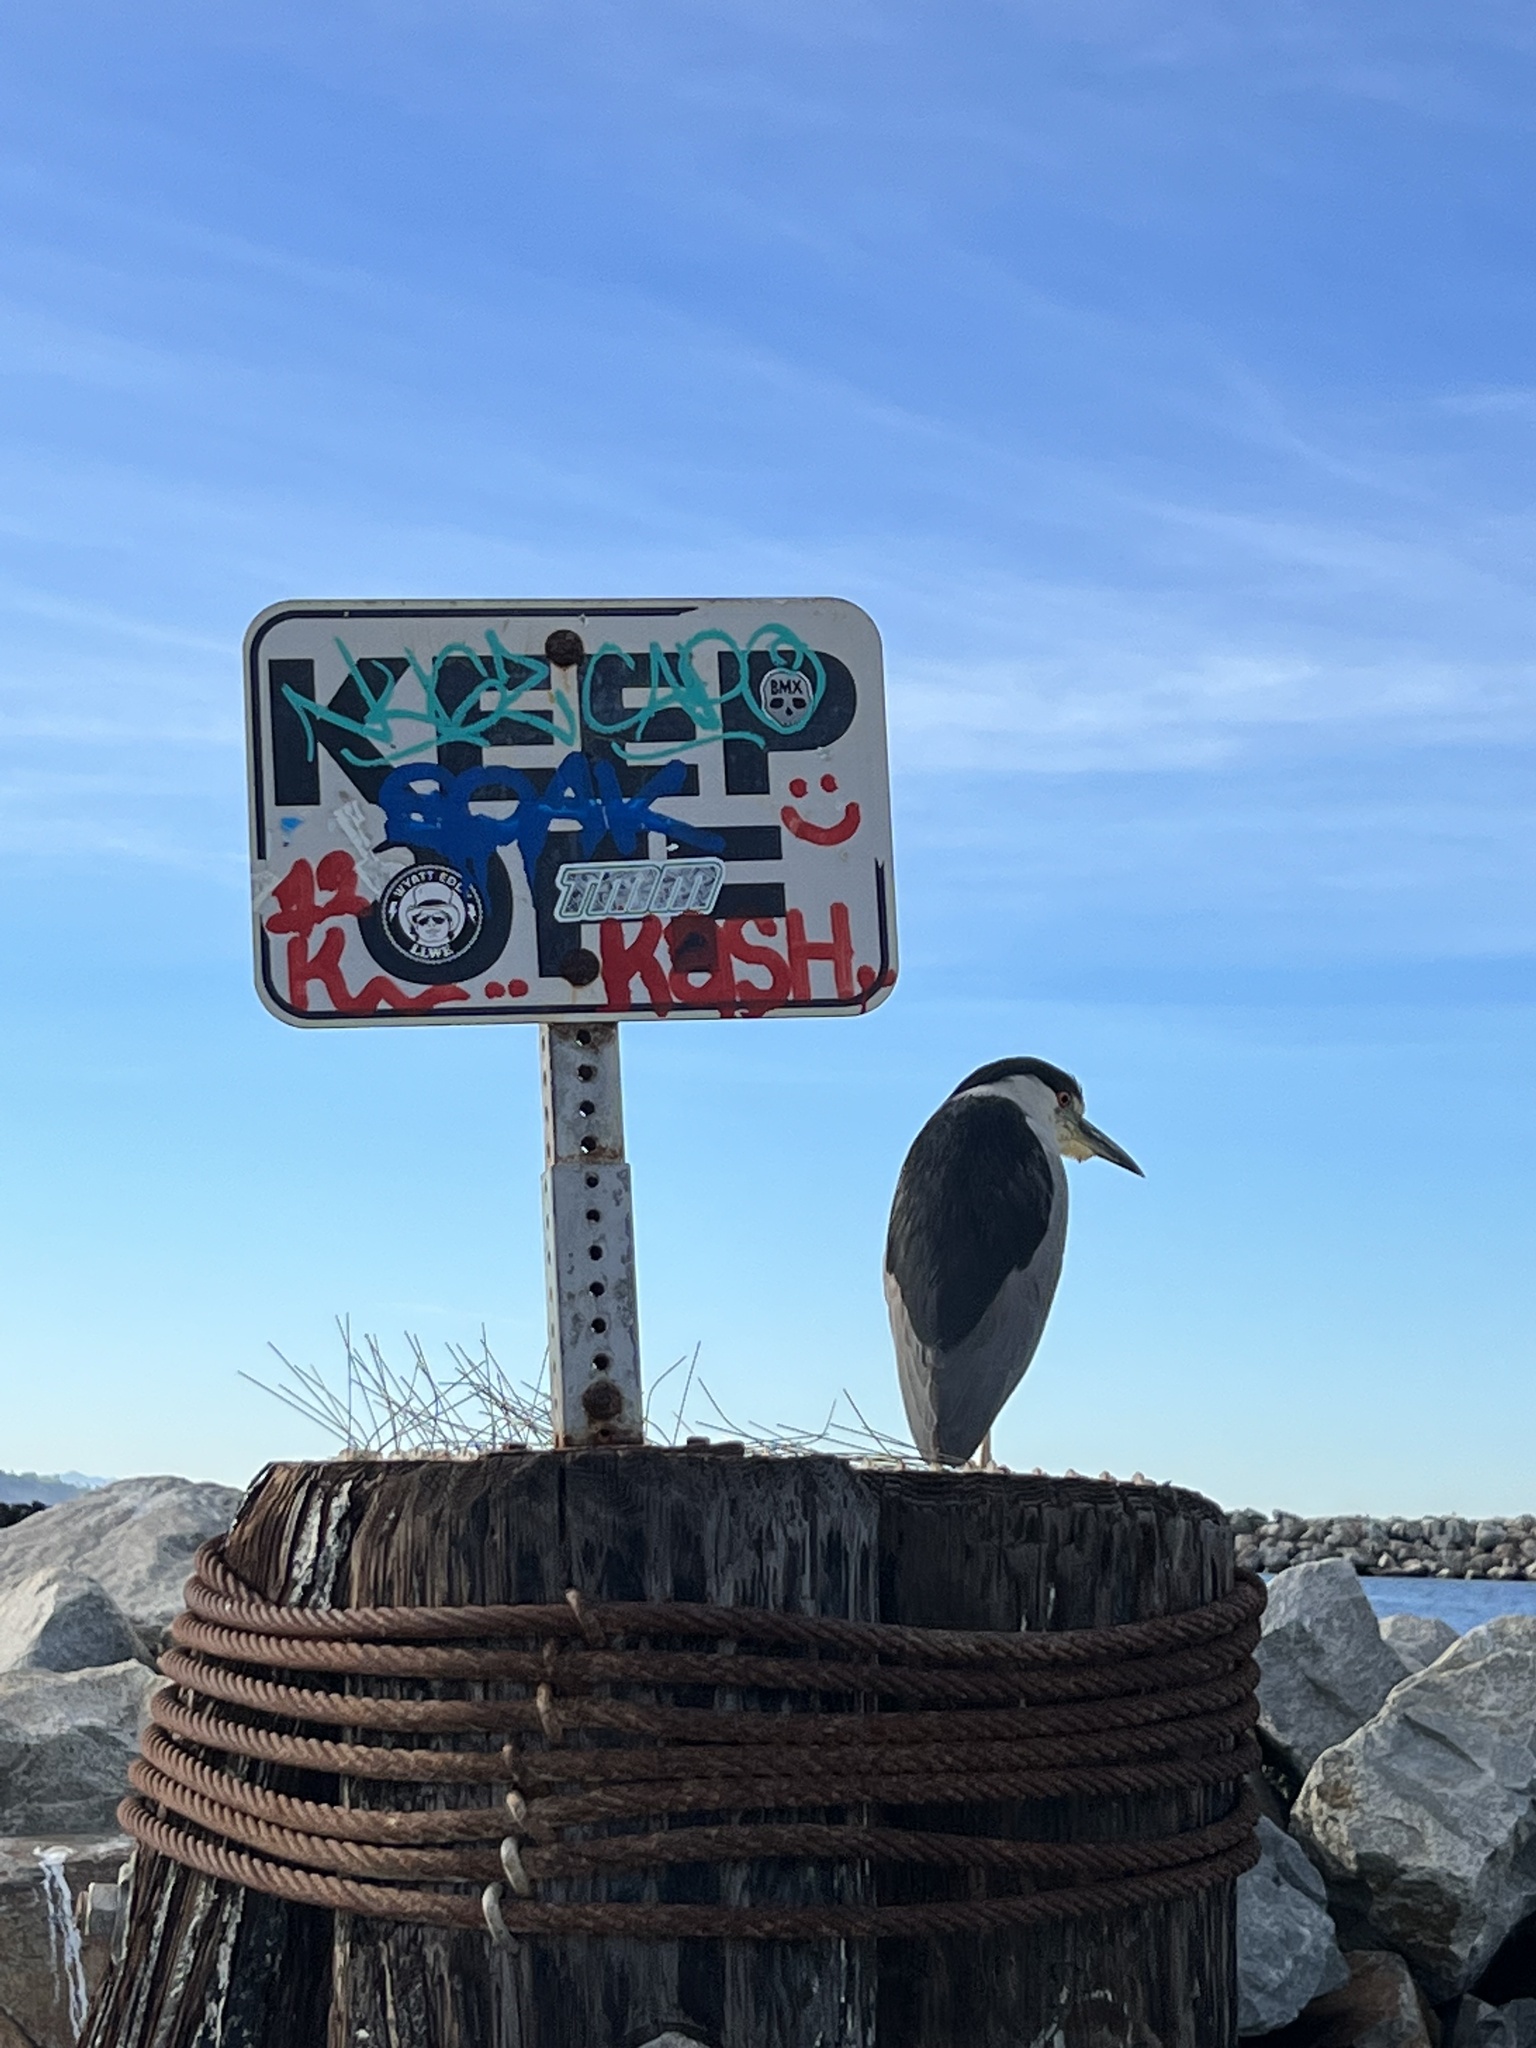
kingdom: Animalia
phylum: Chordata
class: Aves
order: Pelecaniformes
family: Ardeidae
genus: Nycticorax
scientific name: Nycticorax nycticorax
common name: Black-crowned night heron
